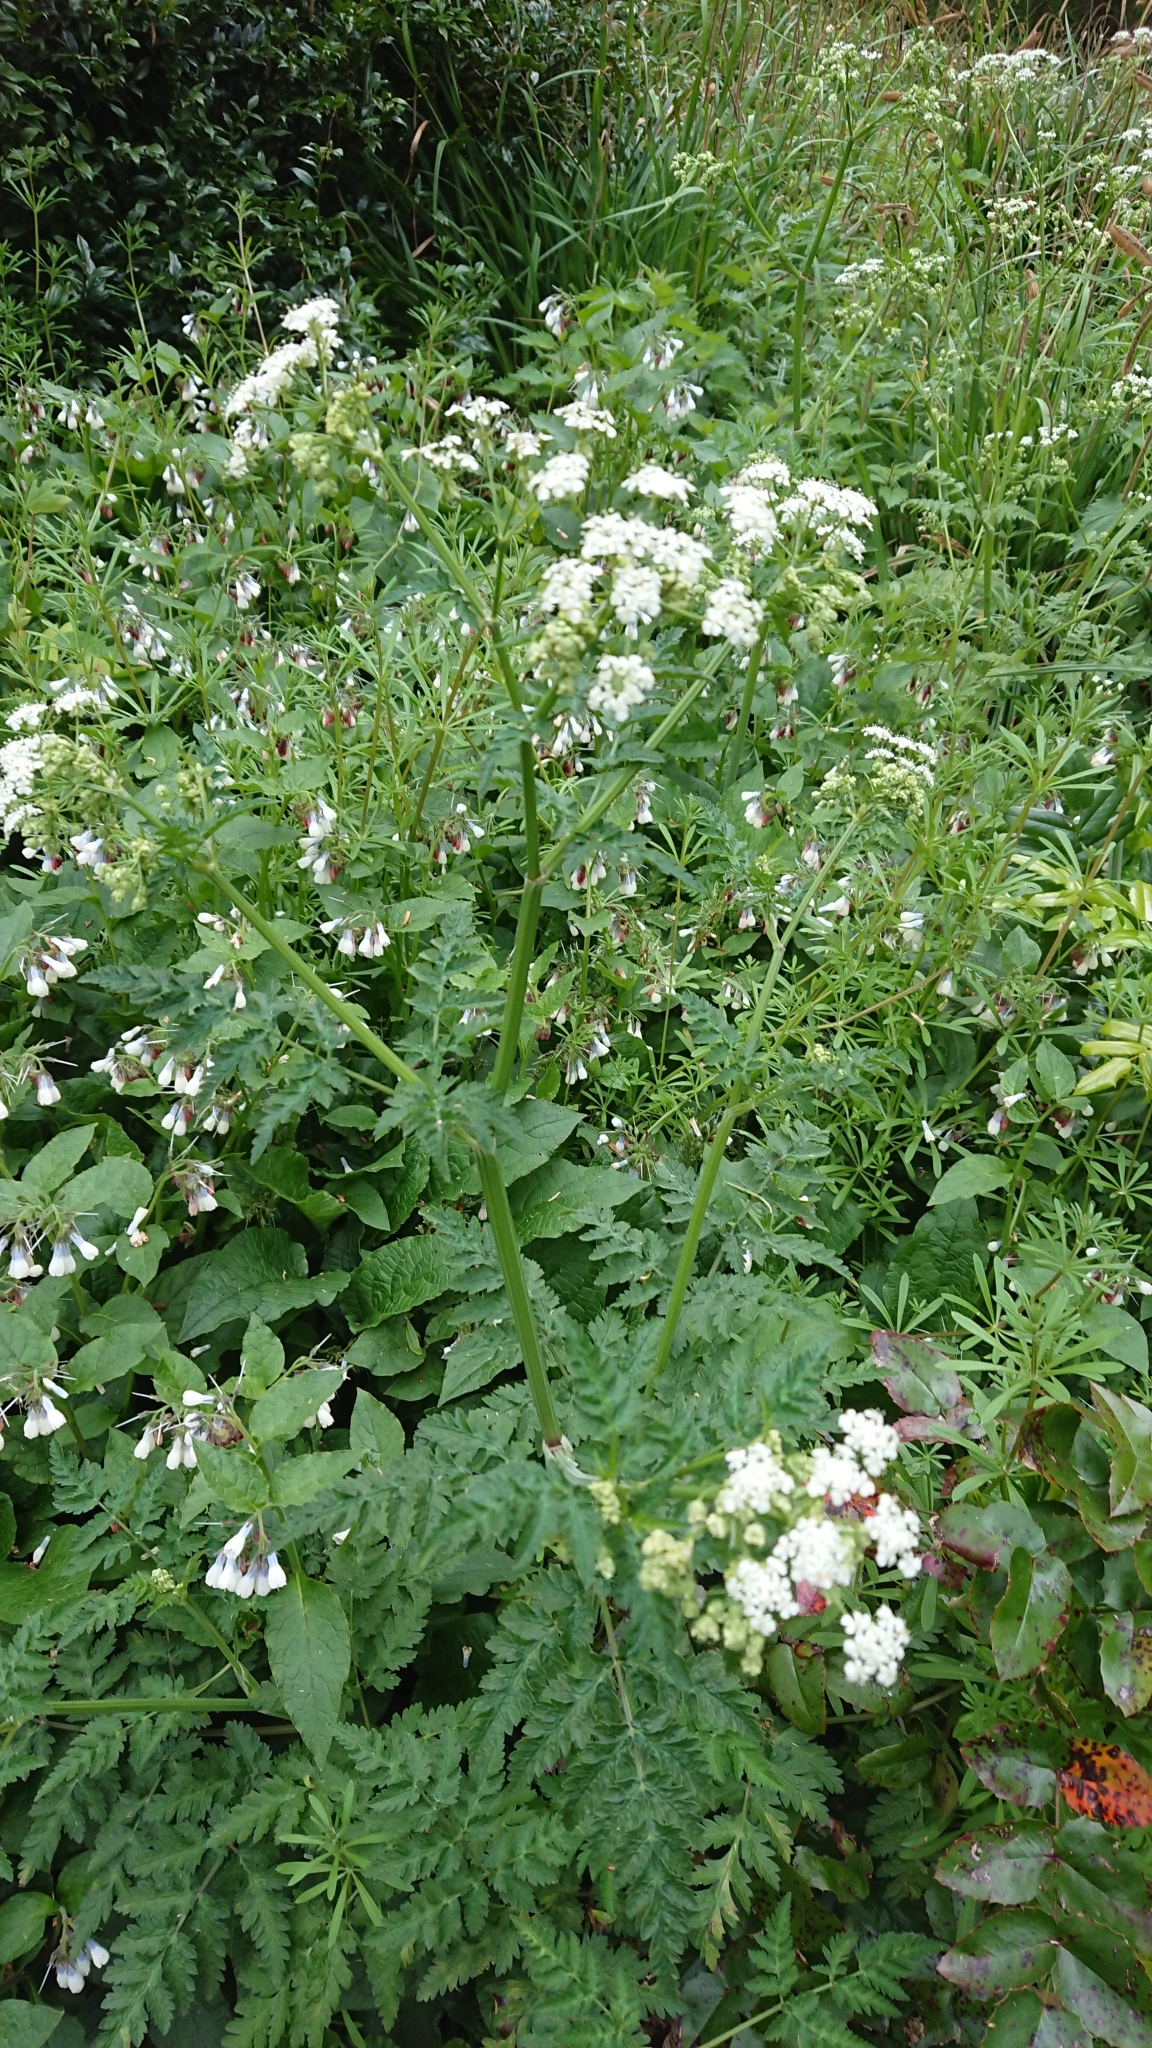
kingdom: Plantae
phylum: Tracheophyta
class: Magnoliopsida
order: Apiales
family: Apiaceae
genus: Anthriscus
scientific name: Anthriscus sylvestris
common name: Cow parsley
